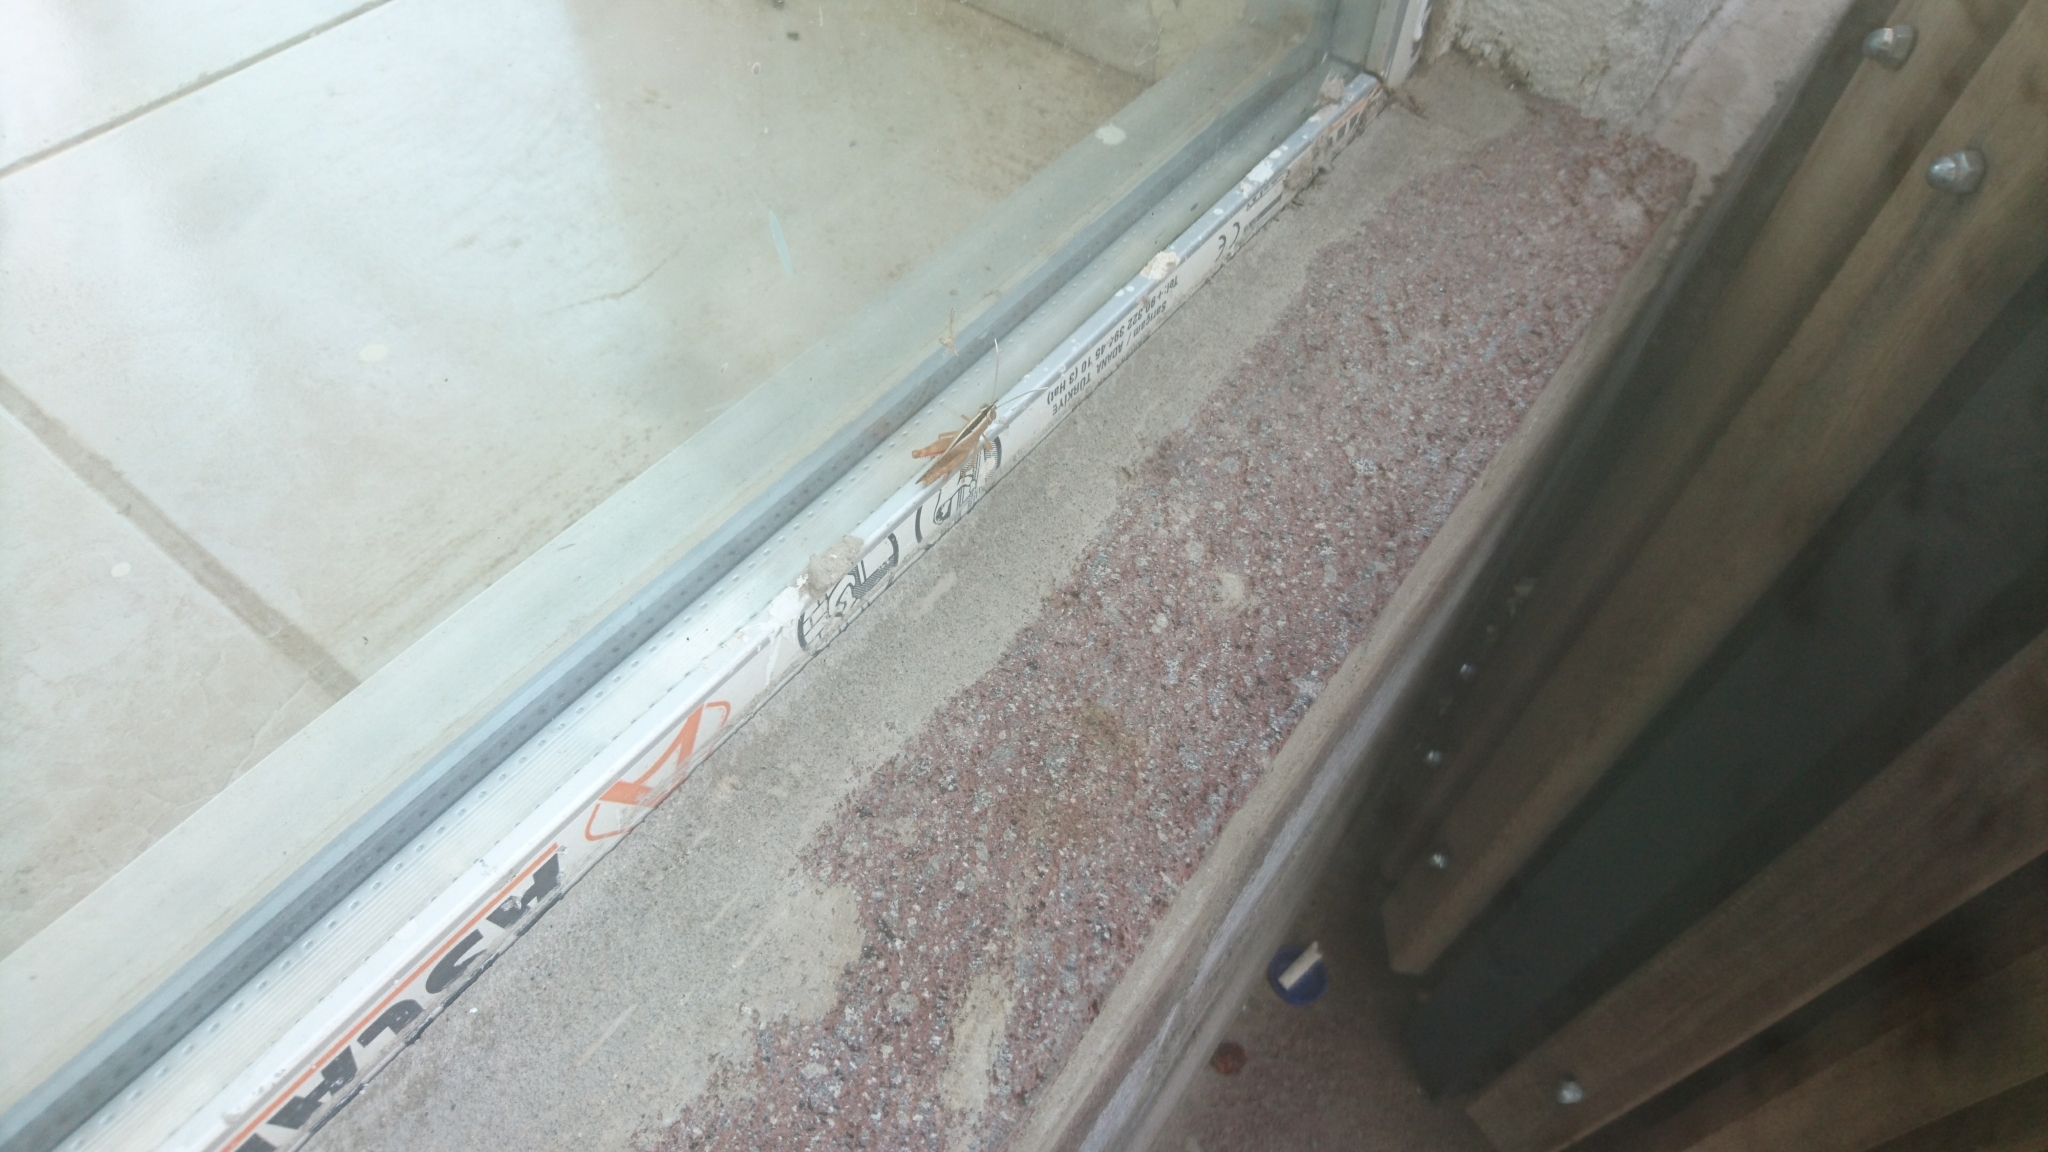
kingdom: Animalia
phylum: Arthropoda
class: Insecta
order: Orthoptera
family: Acrididae
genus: Heteracris
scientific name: Heteracris pterosticha
